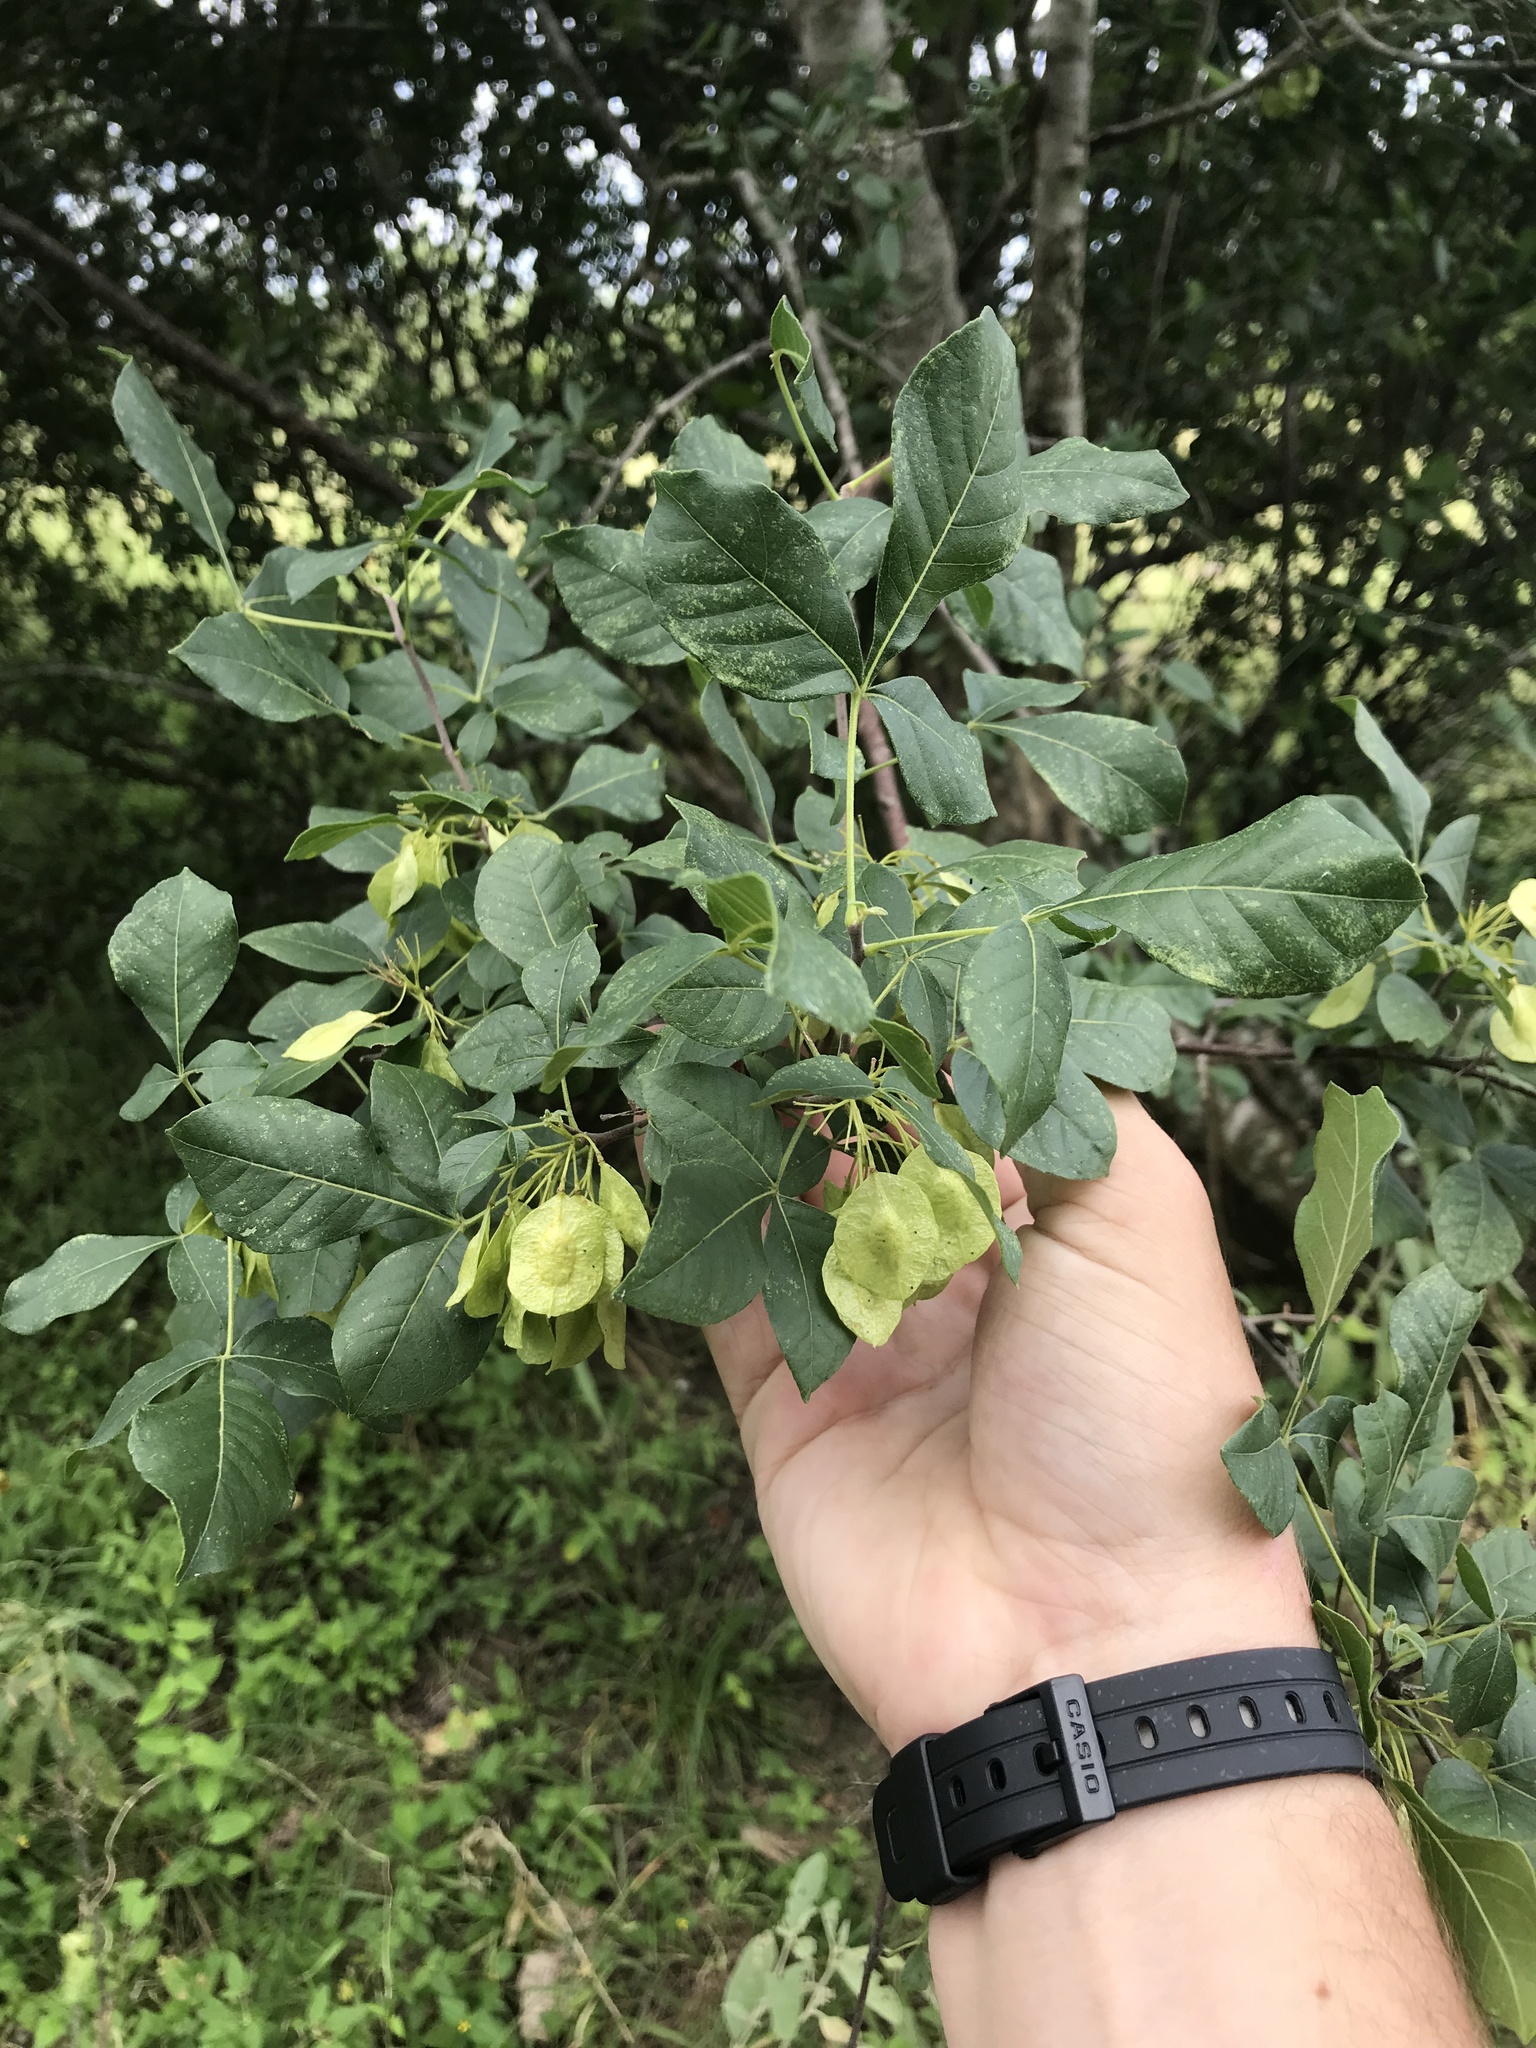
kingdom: Plantae
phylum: Tracheophyta
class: Magnoliopsida
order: Sapindales
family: Rutaceae
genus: Ptelea
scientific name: Ptelea trifoliata
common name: Common hop-tree
